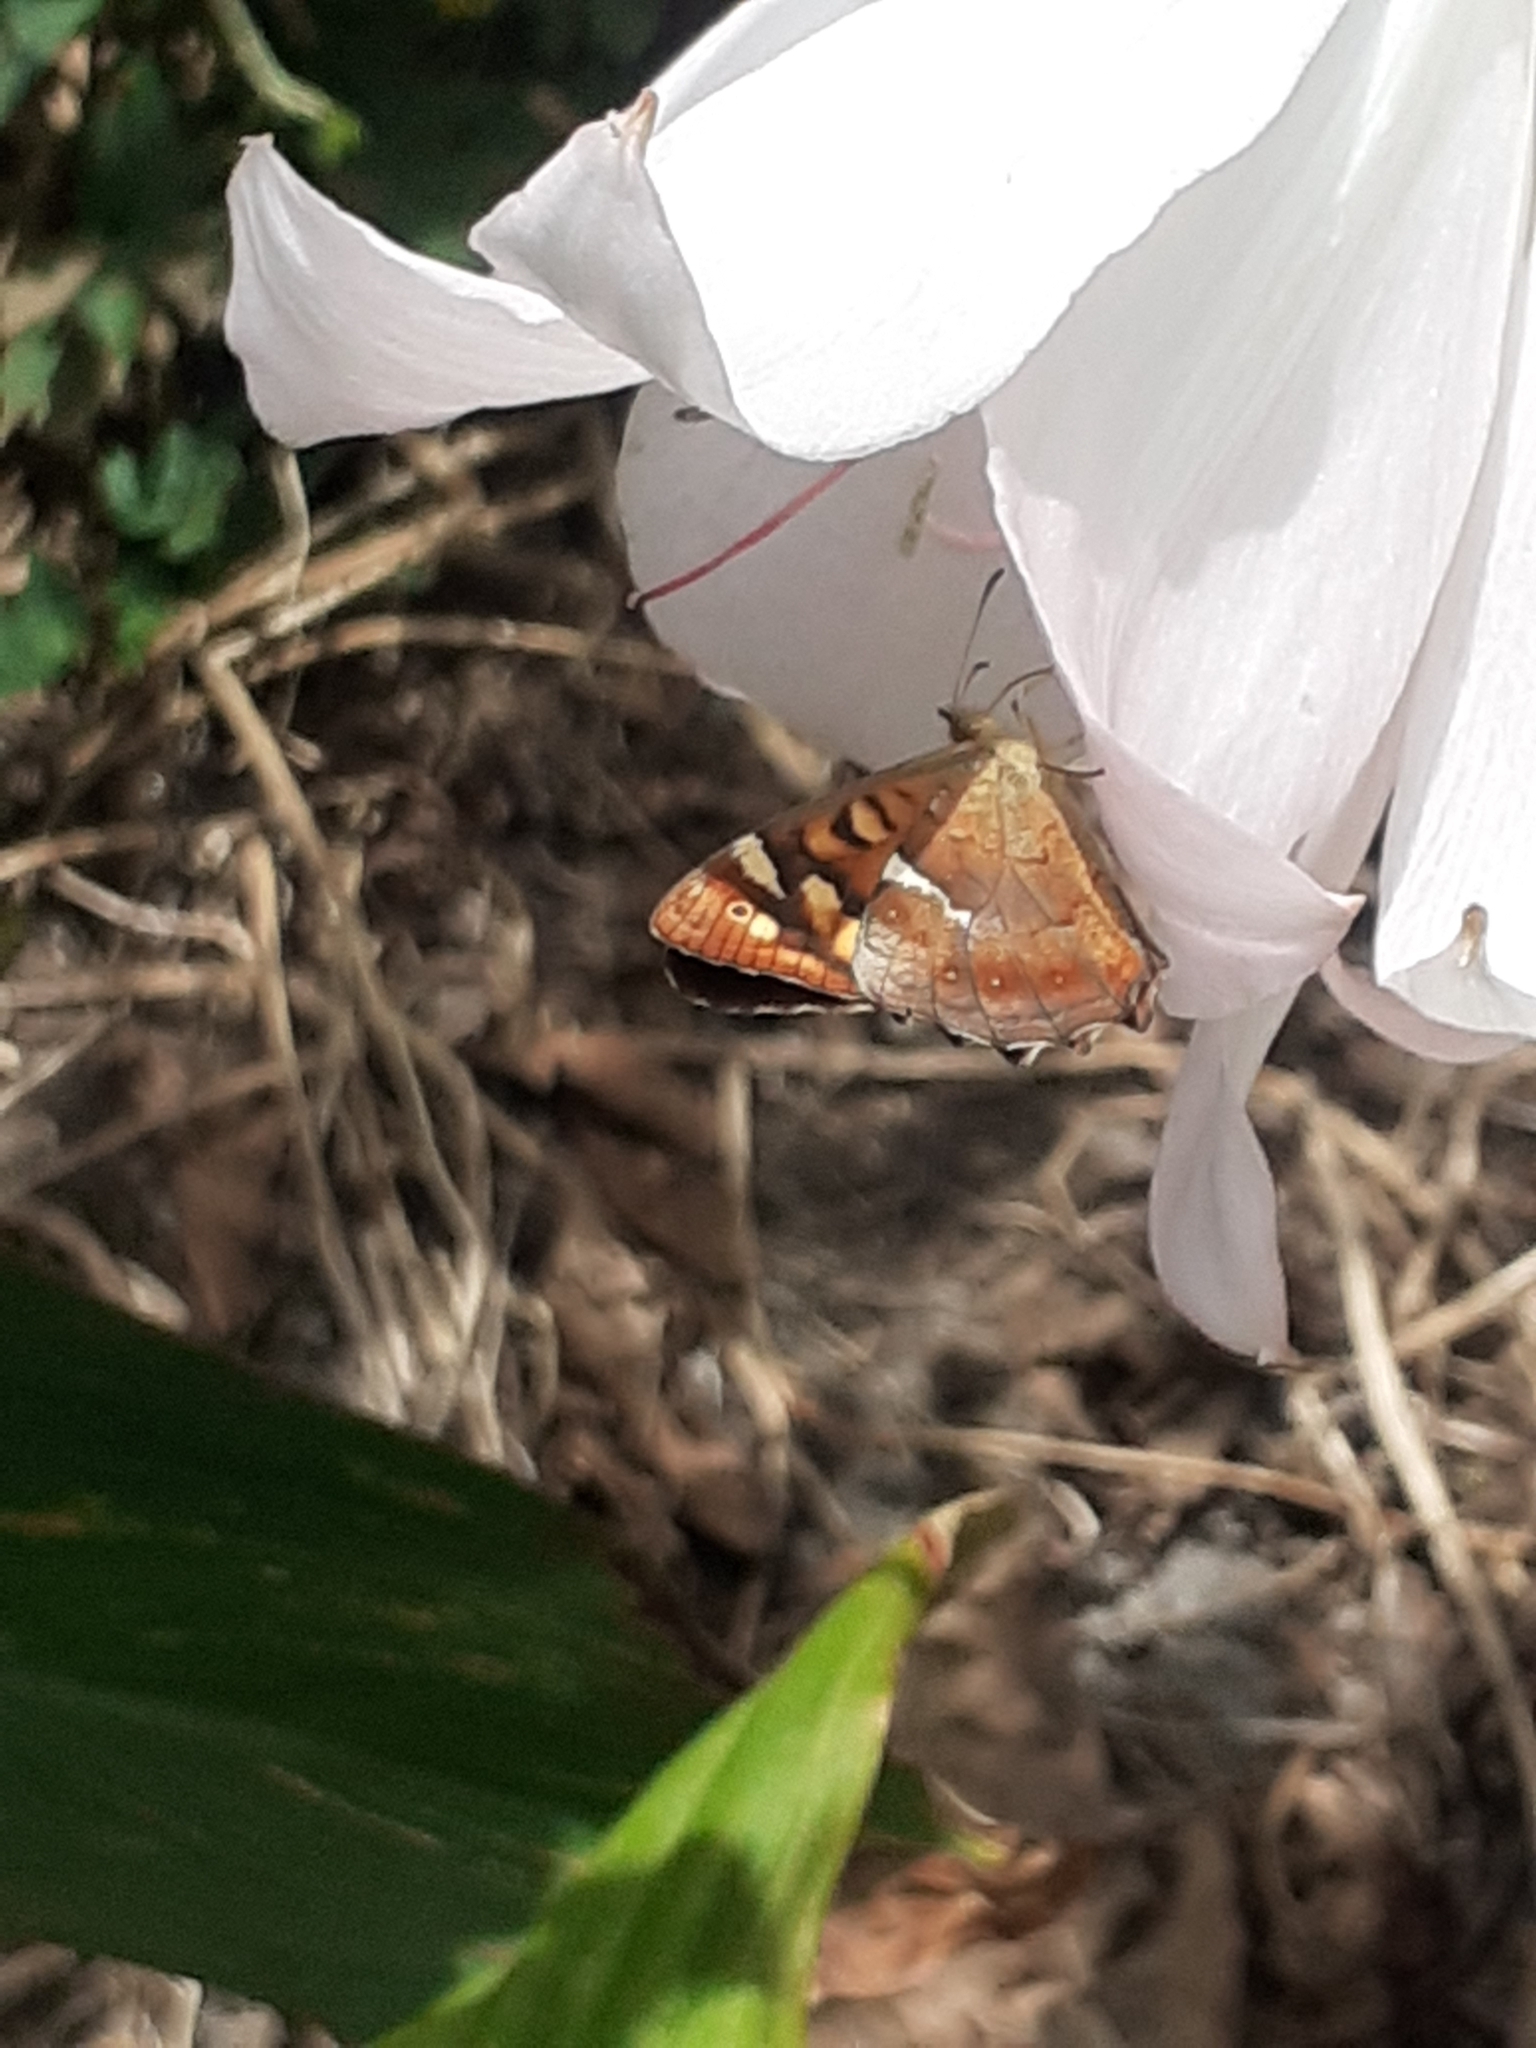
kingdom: Animalia
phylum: Arthropoda
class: Insecta
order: Lepidoptera
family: Nymphalidae
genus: Pararge
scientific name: Pararge aegeria
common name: Speckled wood
